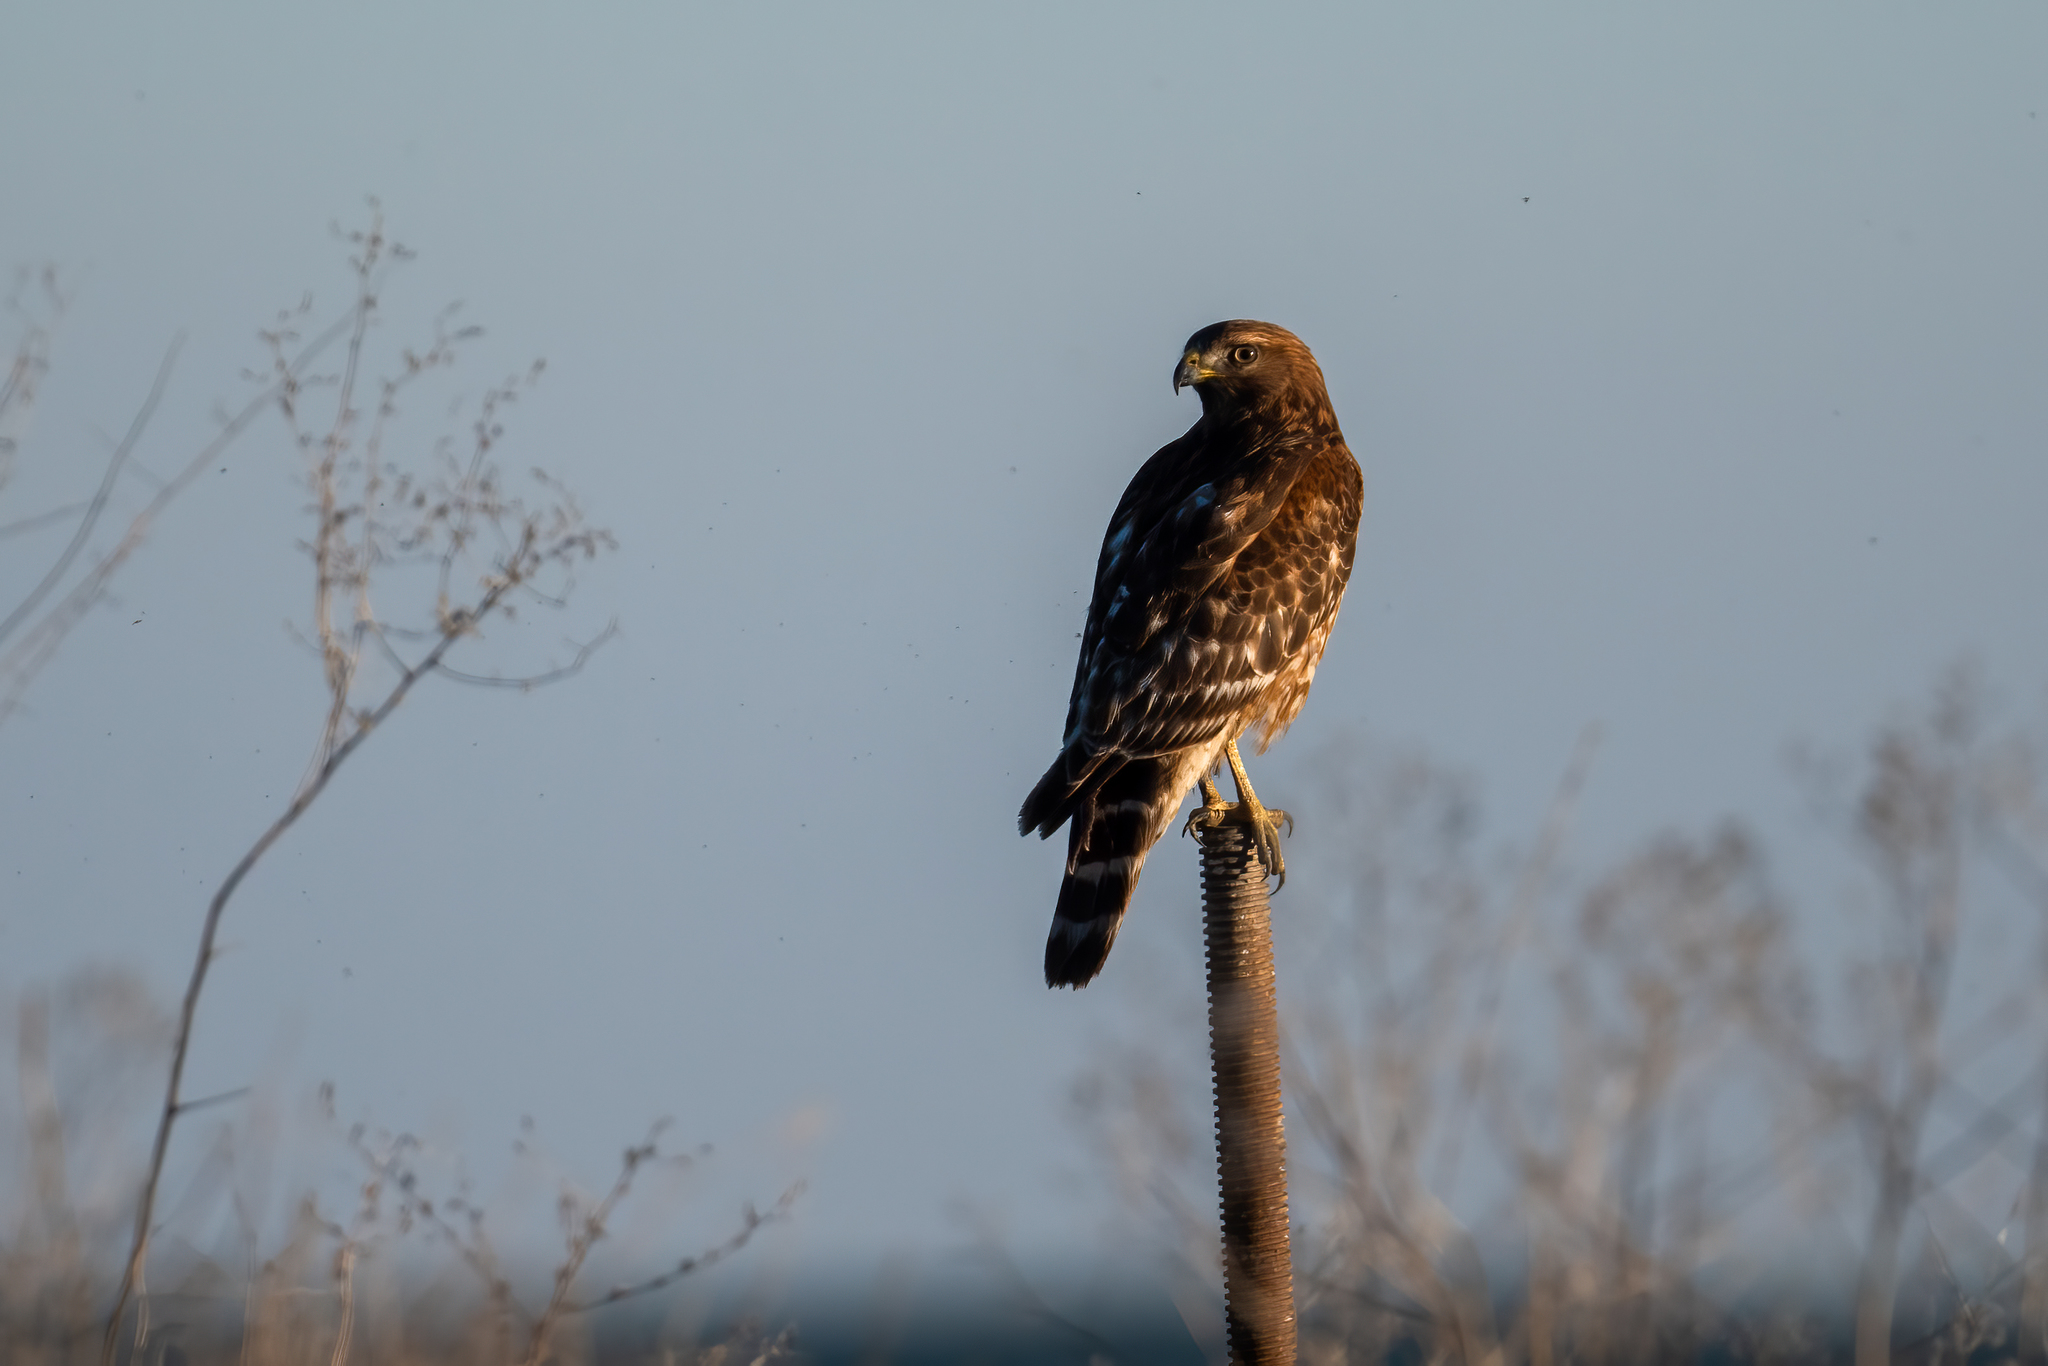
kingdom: Animalia
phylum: Chordata
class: Aves
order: Accipitriformes
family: Accipitridae
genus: Buteo
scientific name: Buteo lineatus
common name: Red-shouldered hawk
